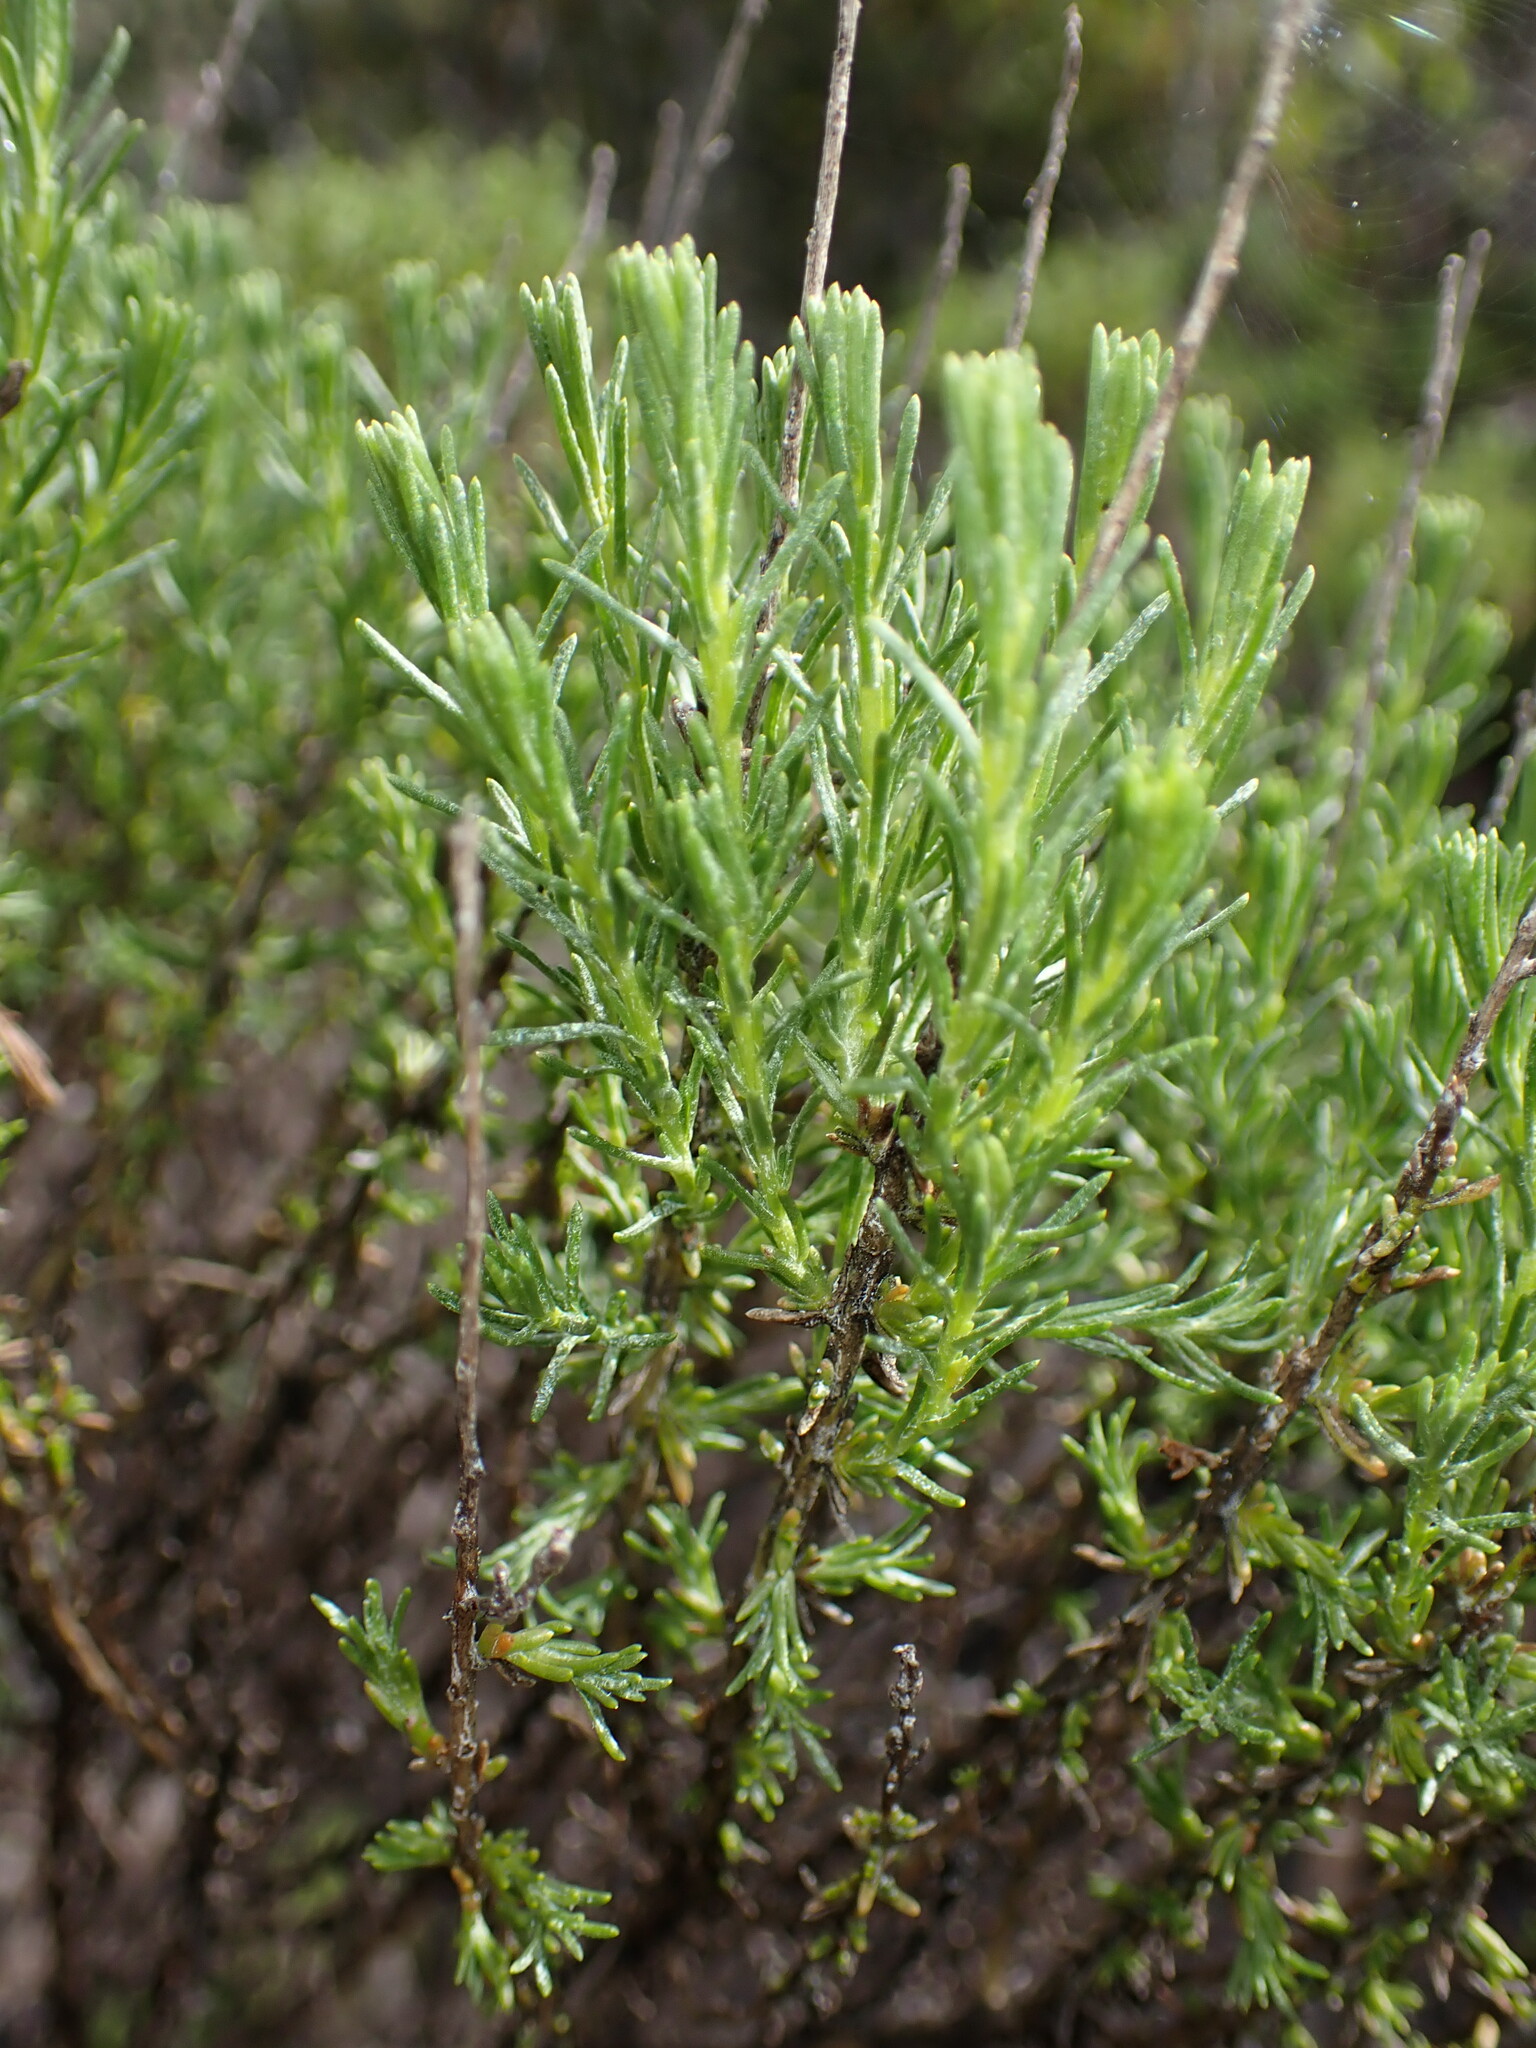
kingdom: Plantae
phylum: Tracheophyta
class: Magnoliopsida
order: Asterales
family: Asteraceae
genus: Ericameria
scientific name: Ericameria ericoides
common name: California goldenbush
